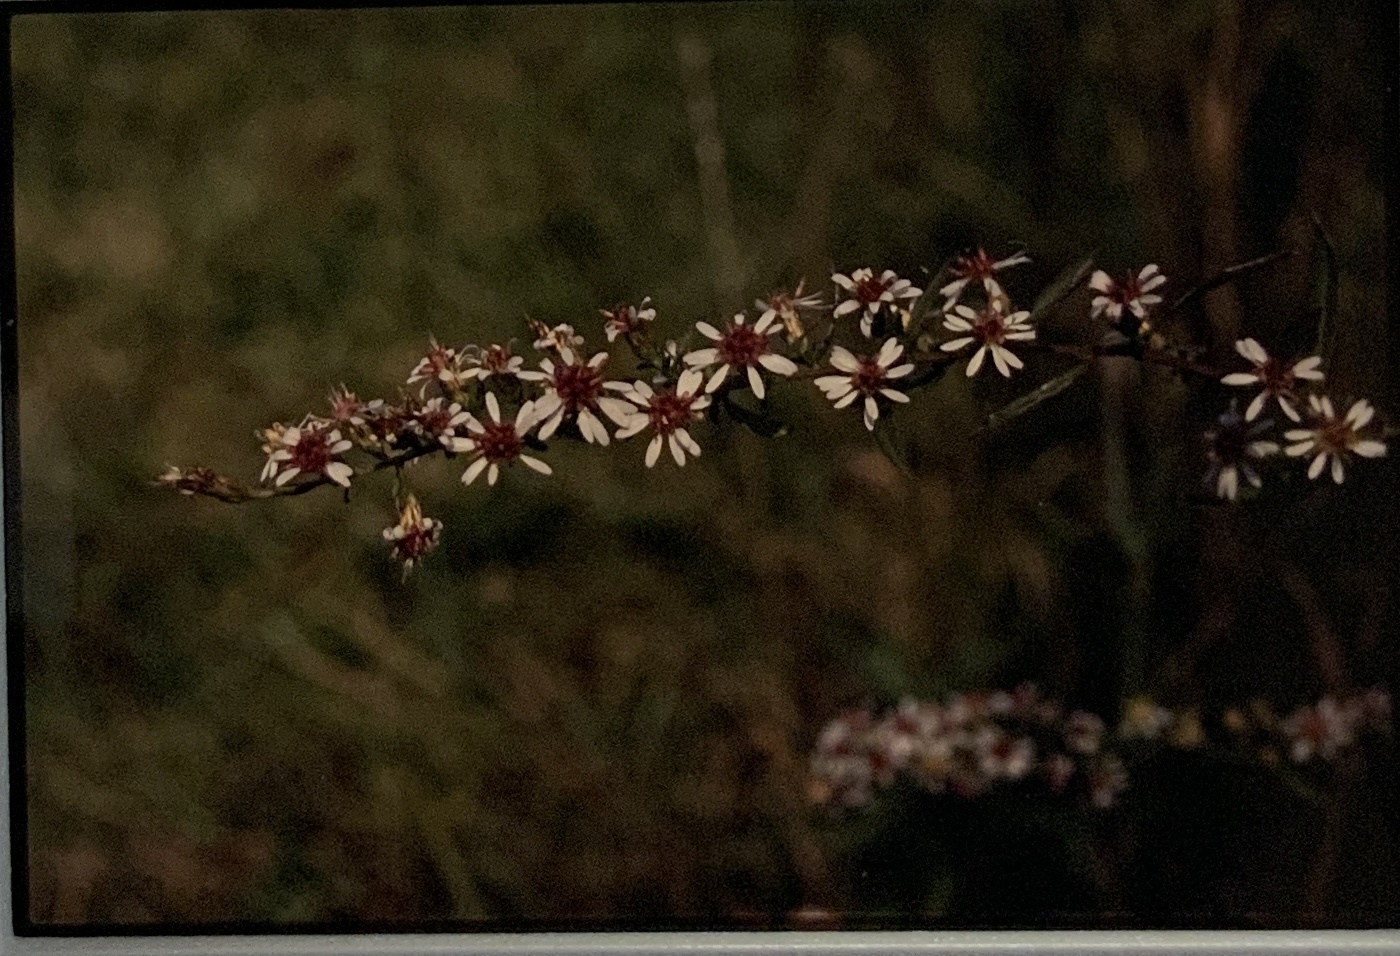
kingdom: Plantae
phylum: Tracheophyta
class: Magnoliopsida
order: Asterales
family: Asteraceae
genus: Symphyotrichum
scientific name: Symphyotrichum lateriflorum
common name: Calico aster
